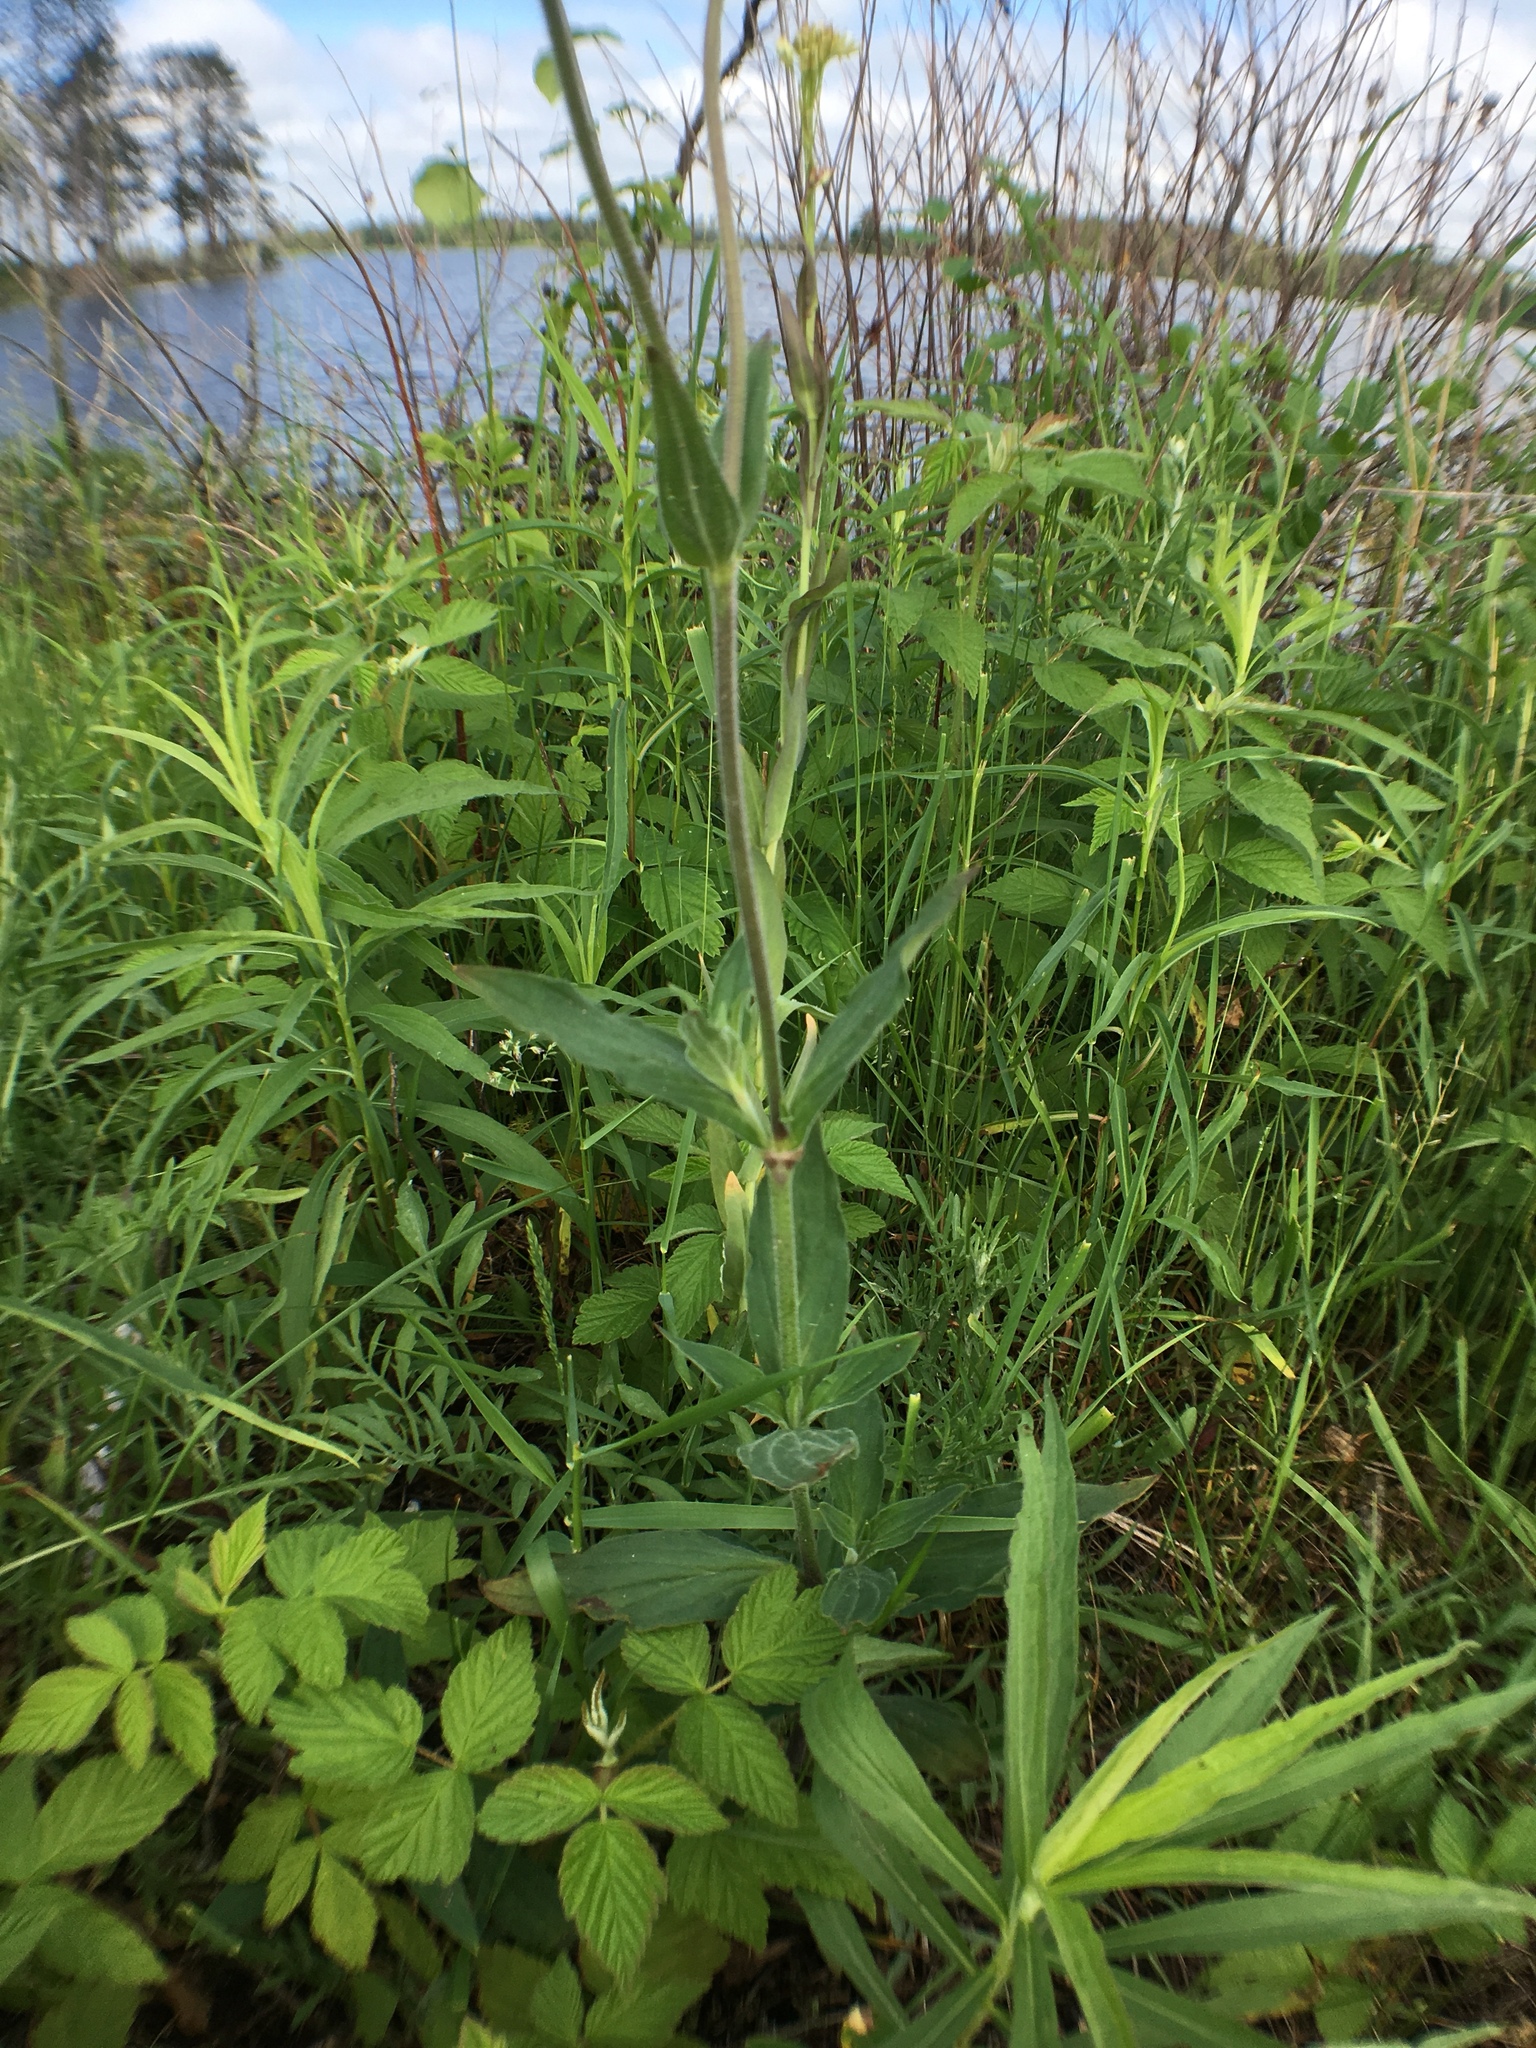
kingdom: Plantae
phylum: Tracheophyta
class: Magnoliopsida
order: Caryophyllales
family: Caryophyllaceae
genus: Silene
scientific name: Silene latifolia
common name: White campion
